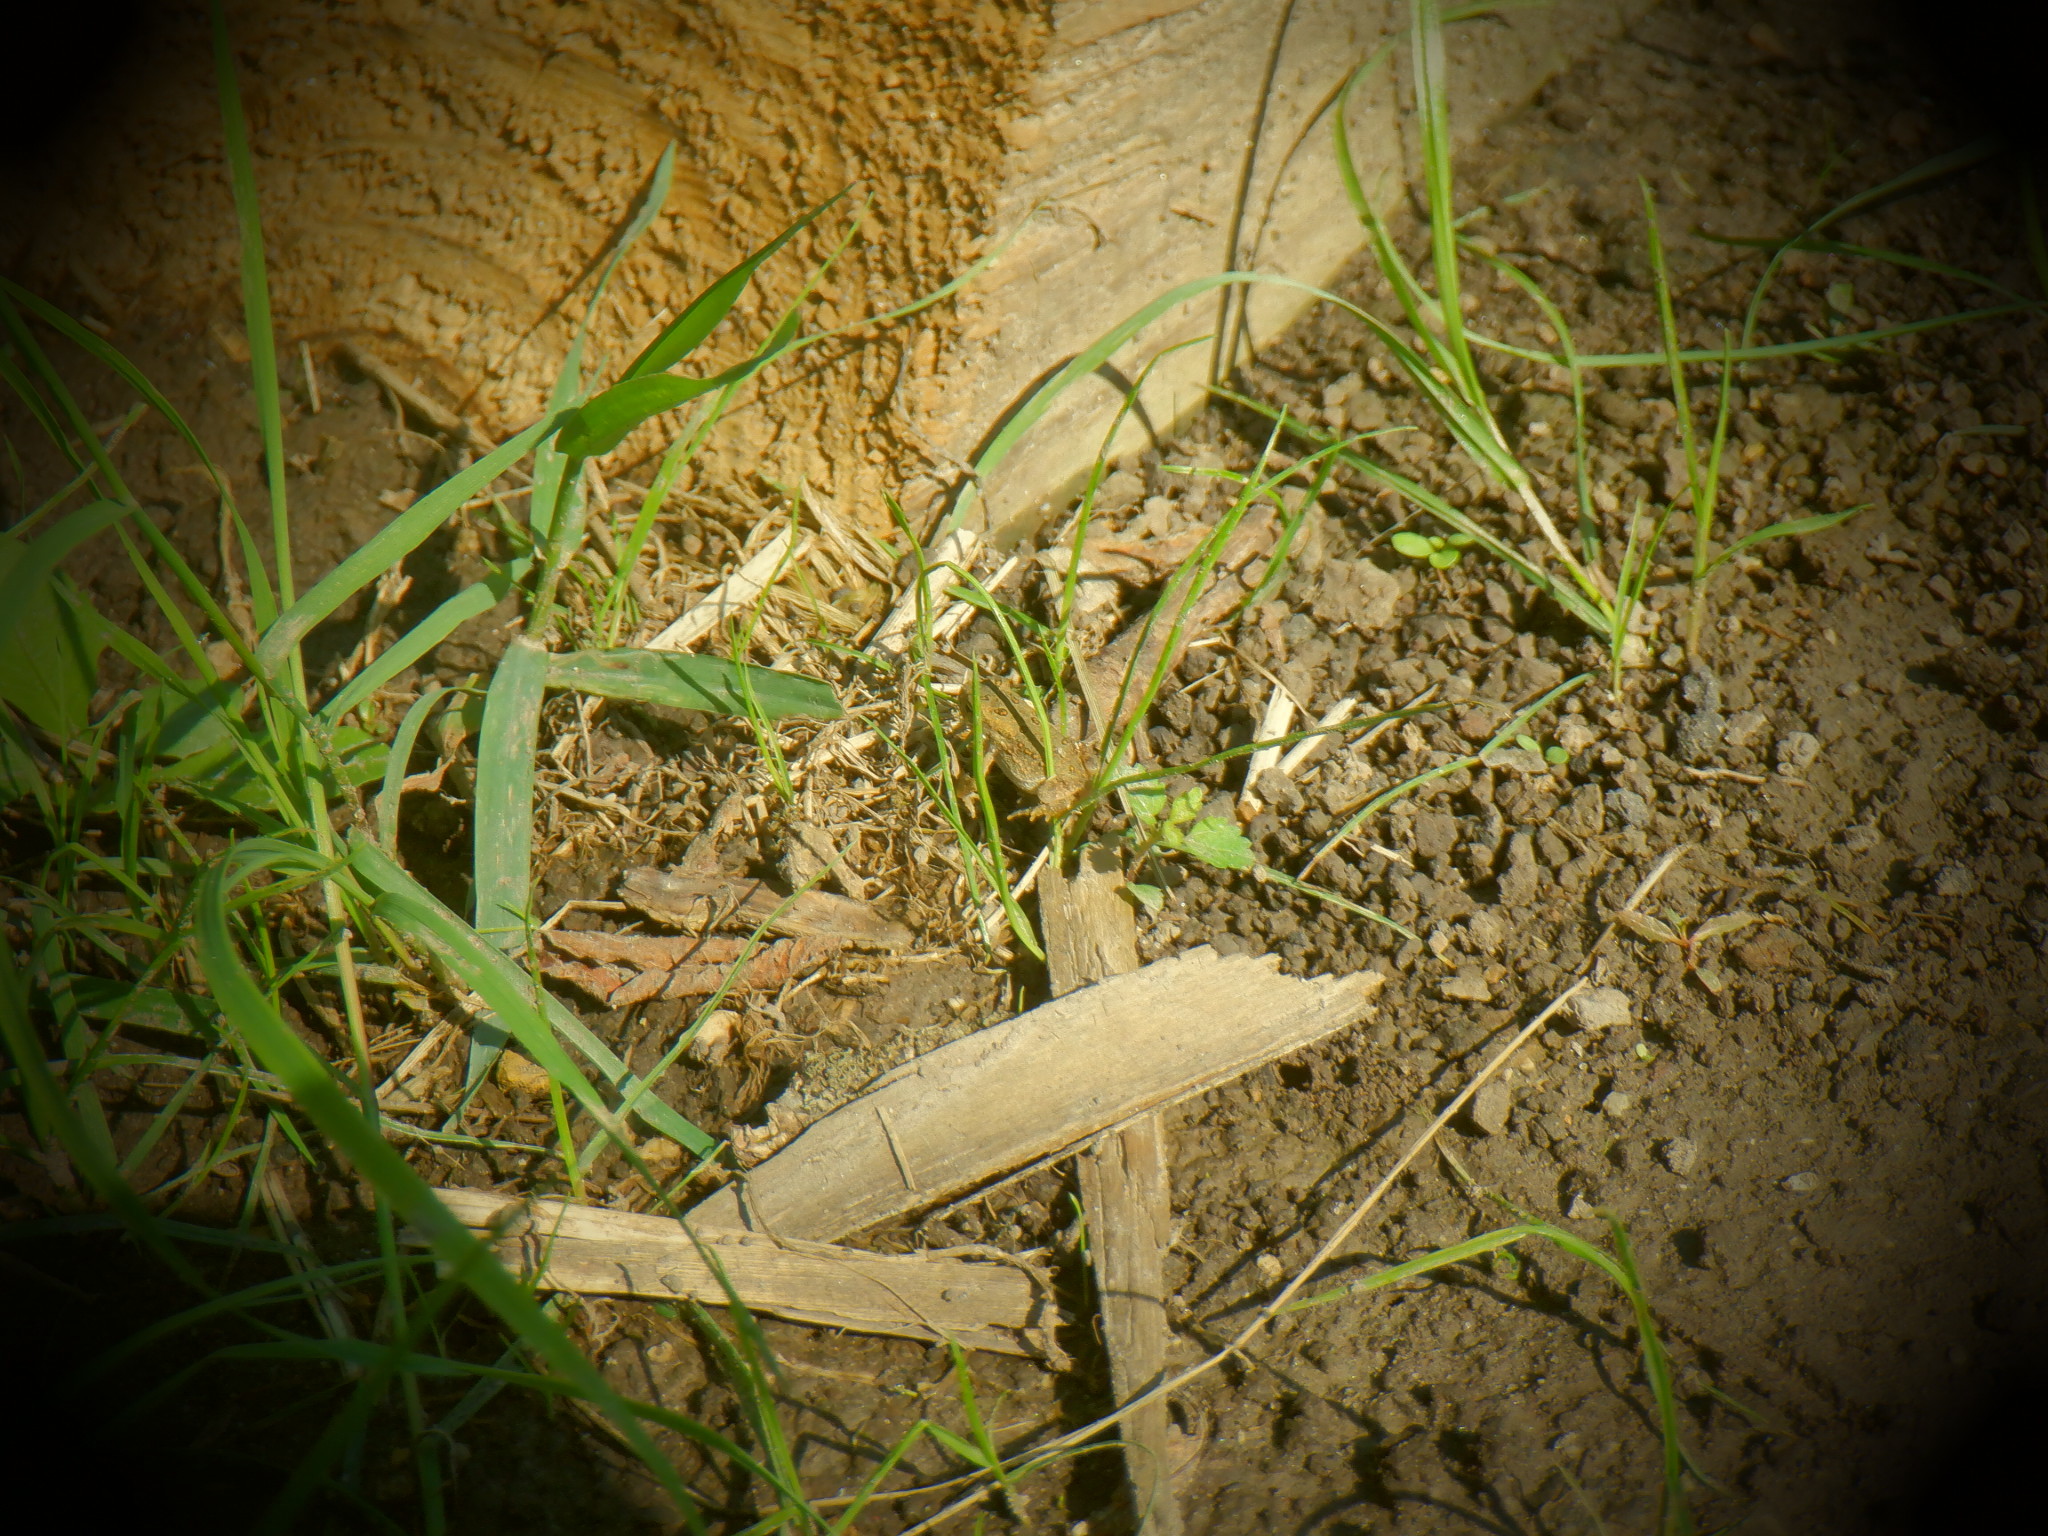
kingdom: Animalia
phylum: Chordata
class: Amphibia
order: Anura
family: Bufonidae
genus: Anaxyrus
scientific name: Anaxyrus americanus
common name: American toad
